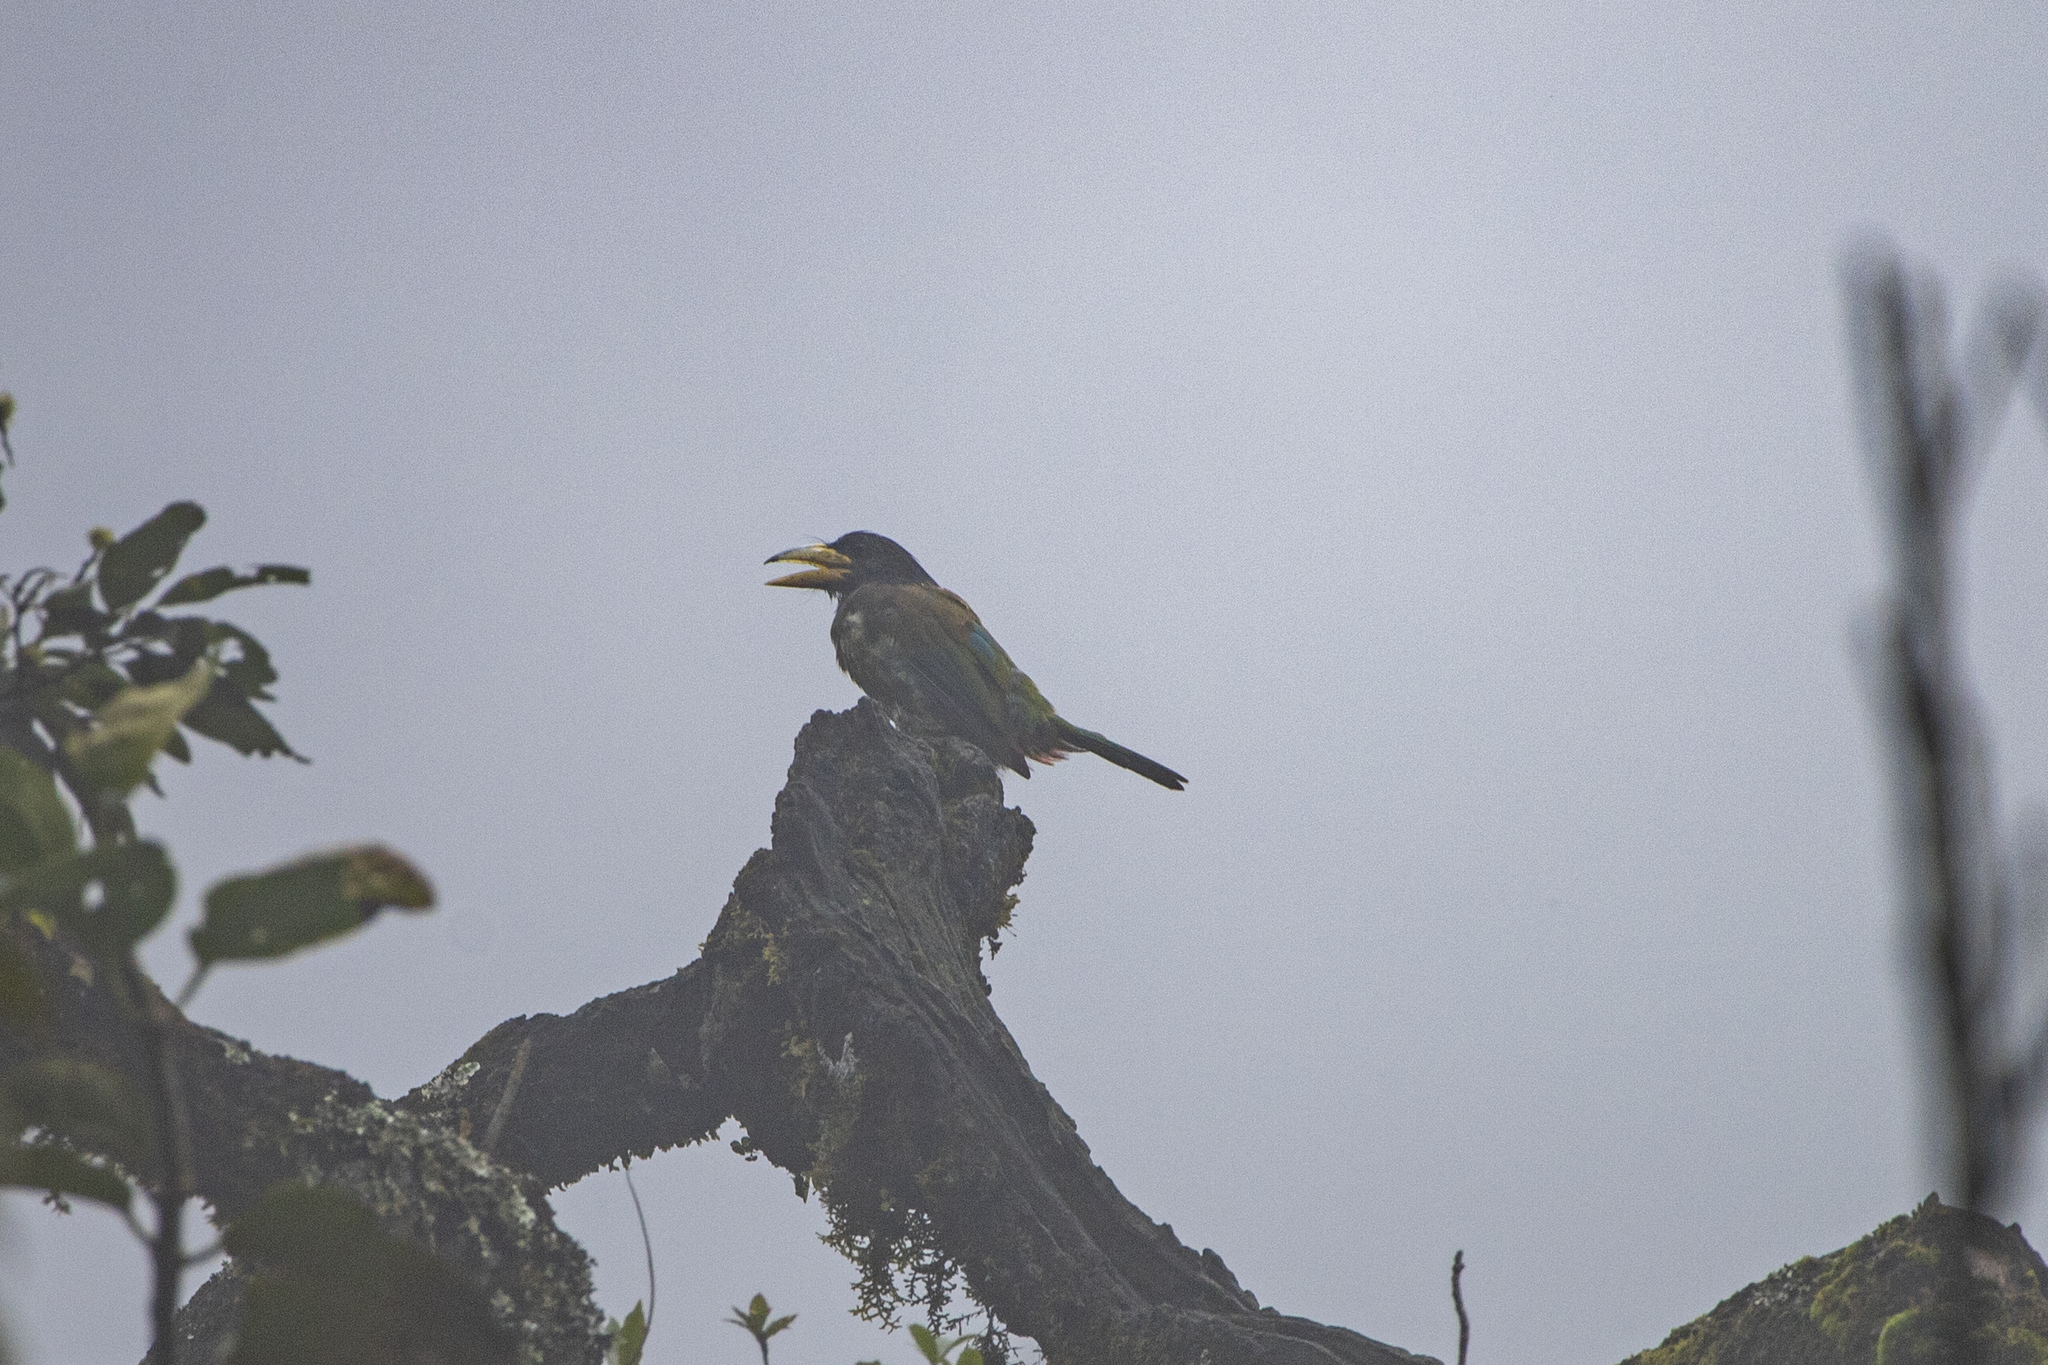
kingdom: Animalia
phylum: Chordata
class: Aves
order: Piciformes
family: Megalaimidae
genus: Psilopogon
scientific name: Psilopogon virens
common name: Great barbet
